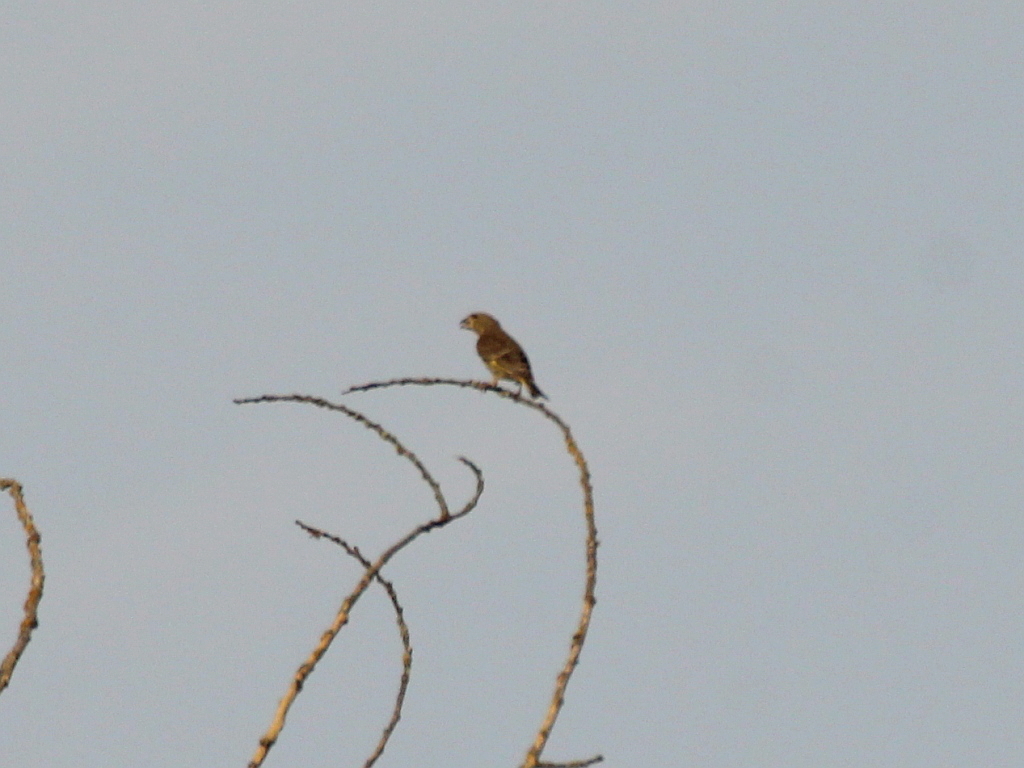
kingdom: Plantae
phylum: Tracheophyta
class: Liliopsida
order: Poales
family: Poaceae
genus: Chloris
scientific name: Chloris chloris
